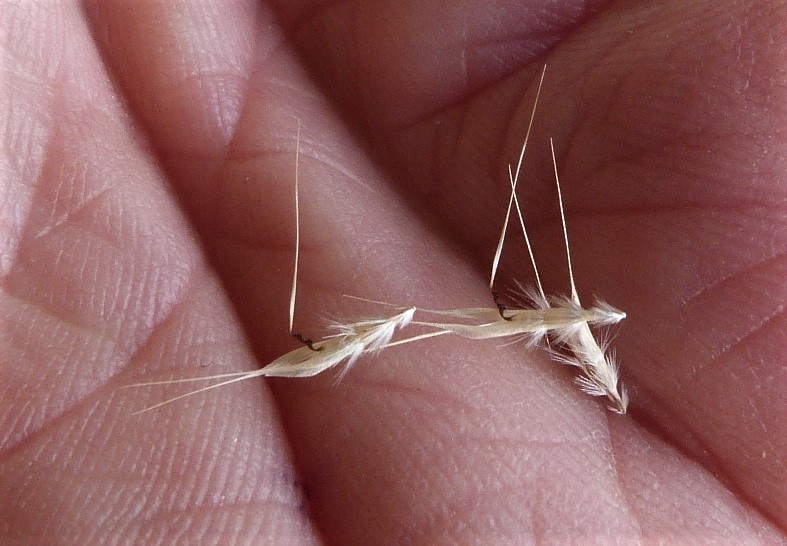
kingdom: Plantae
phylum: Tracheophyta
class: Liliopsida
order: Poales
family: Poaceae
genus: Rytidosperma
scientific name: Rytidosperma racemosum
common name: Wallaby-grass
